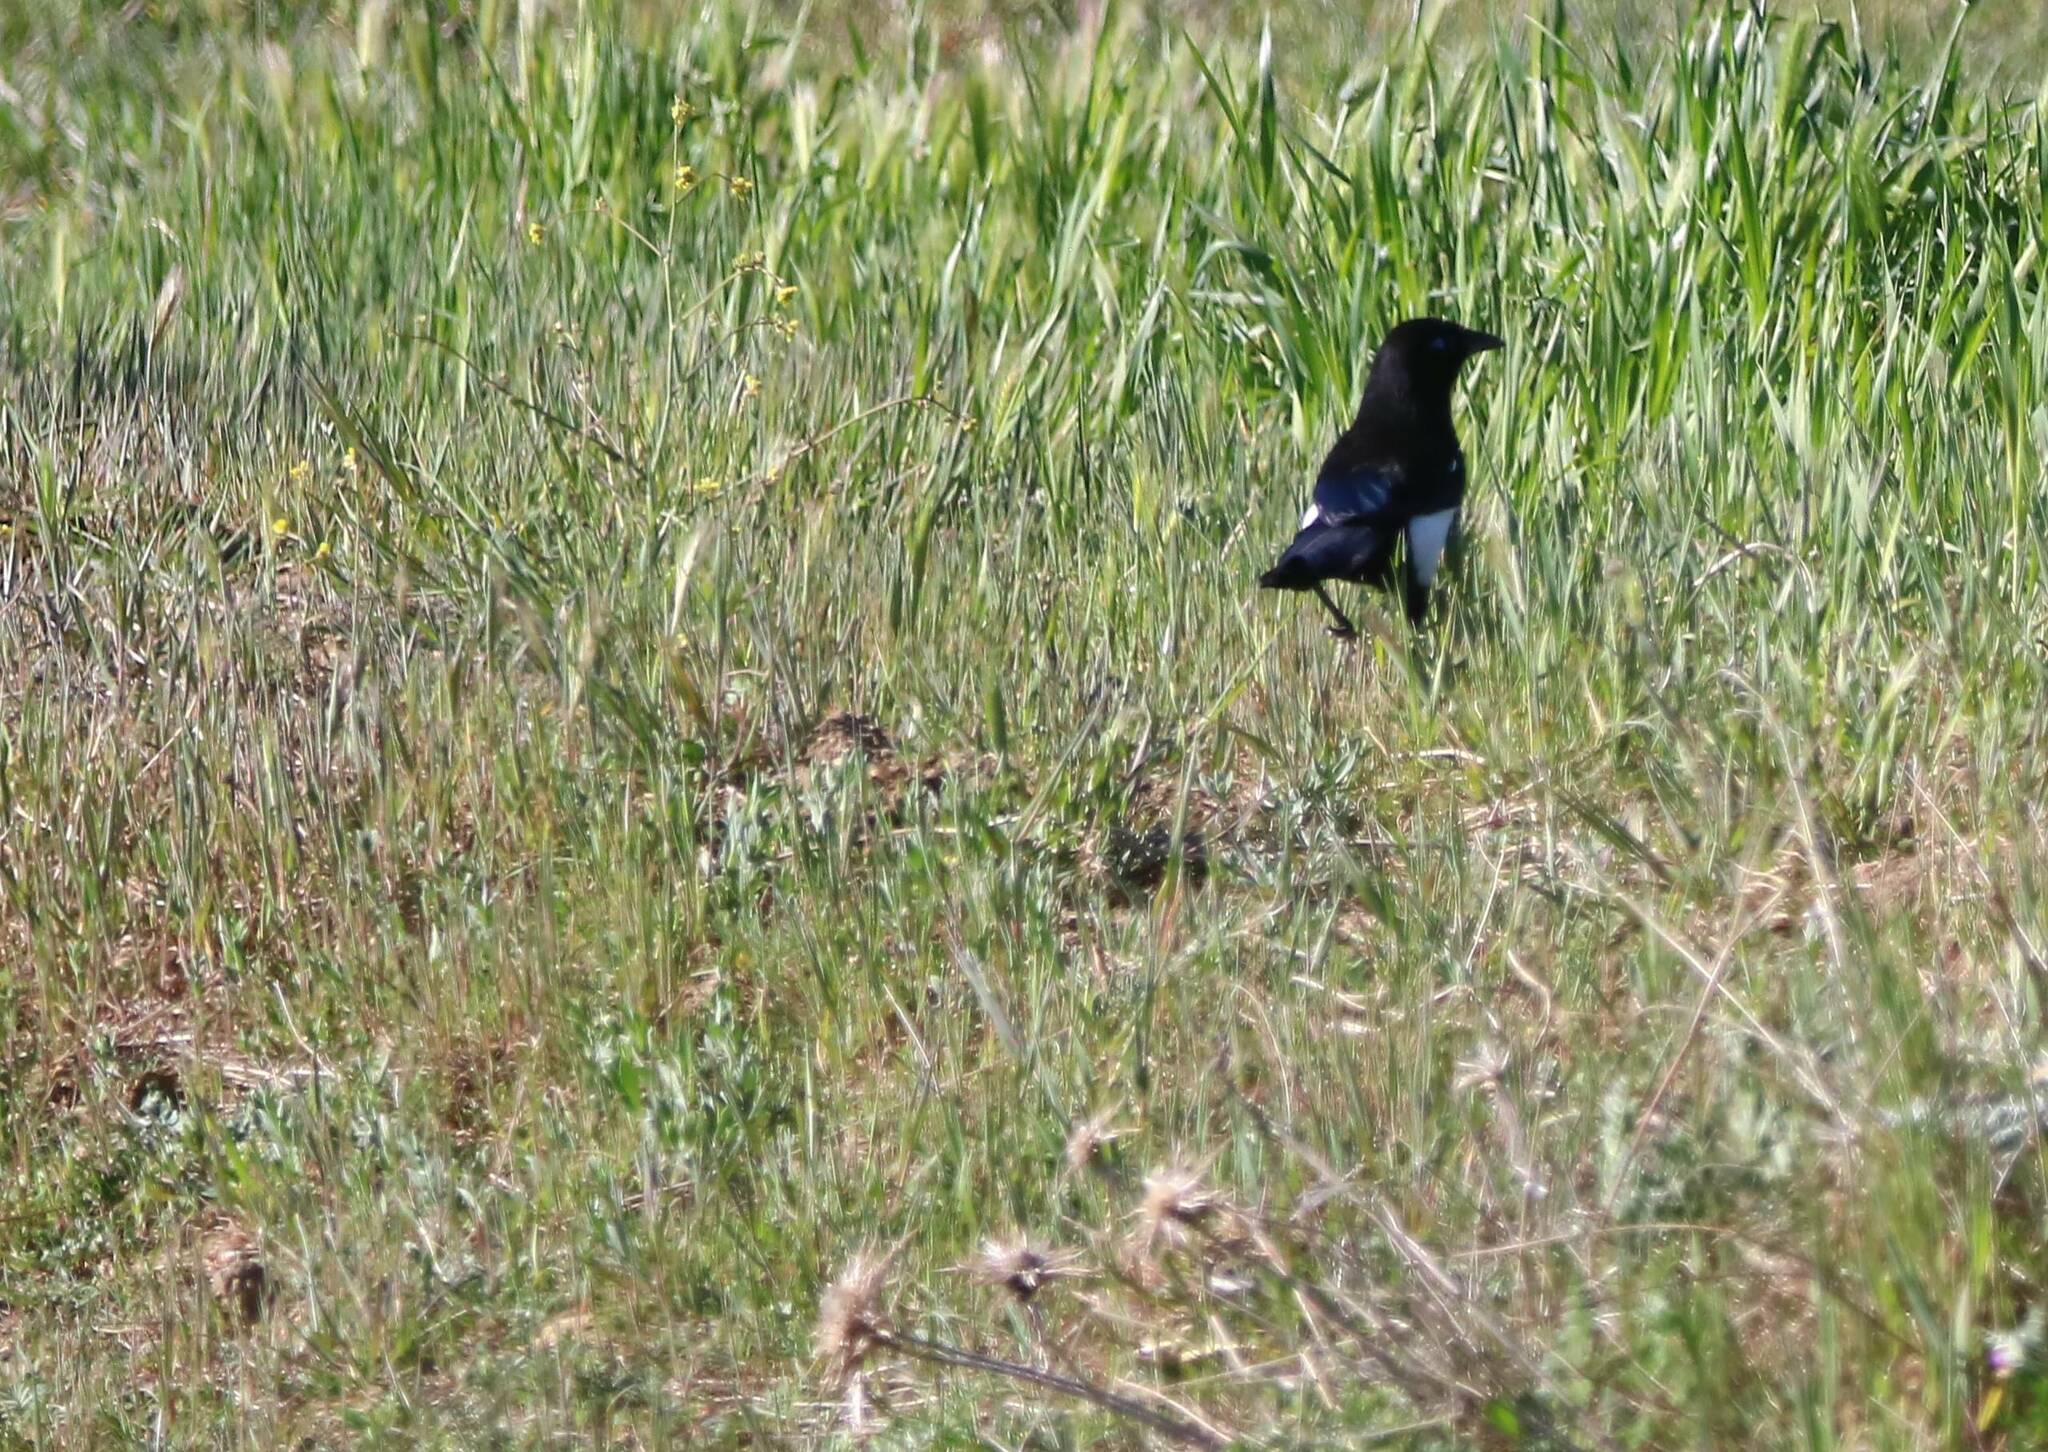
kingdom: Animalia
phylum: Chordata
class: Aves
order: Passeriformes
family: Corvidae
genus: Pica
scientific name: Pica mauritanica
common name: Maghreb magpie
